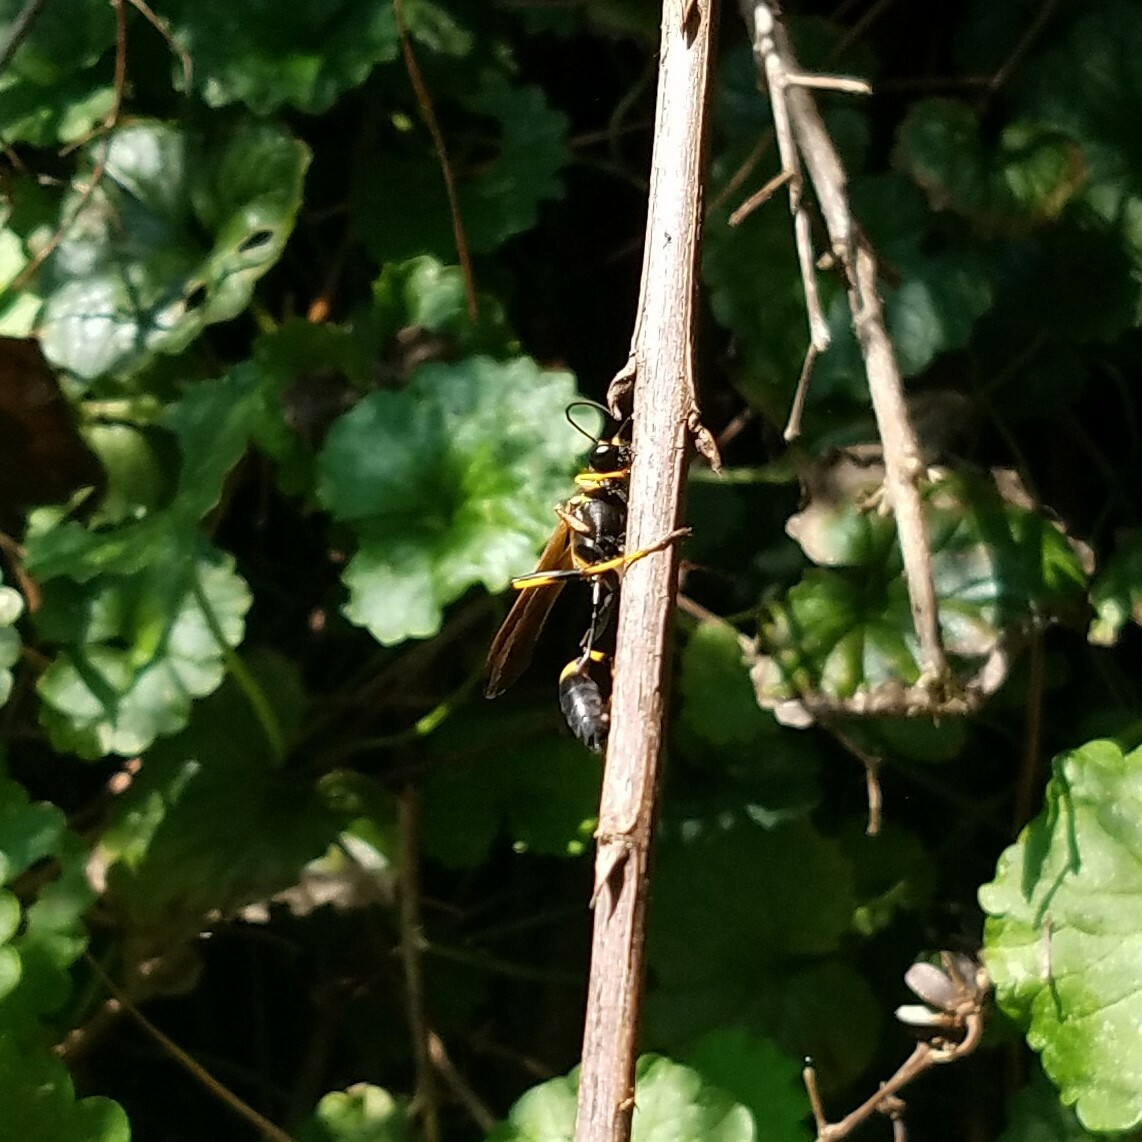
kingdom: Animalia
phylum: Arthropoda
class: Insecta
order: Hymenoptera
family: Sphecidae
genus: Sceliphron
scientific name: Sceliphron caementarium
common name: Mud dauber
